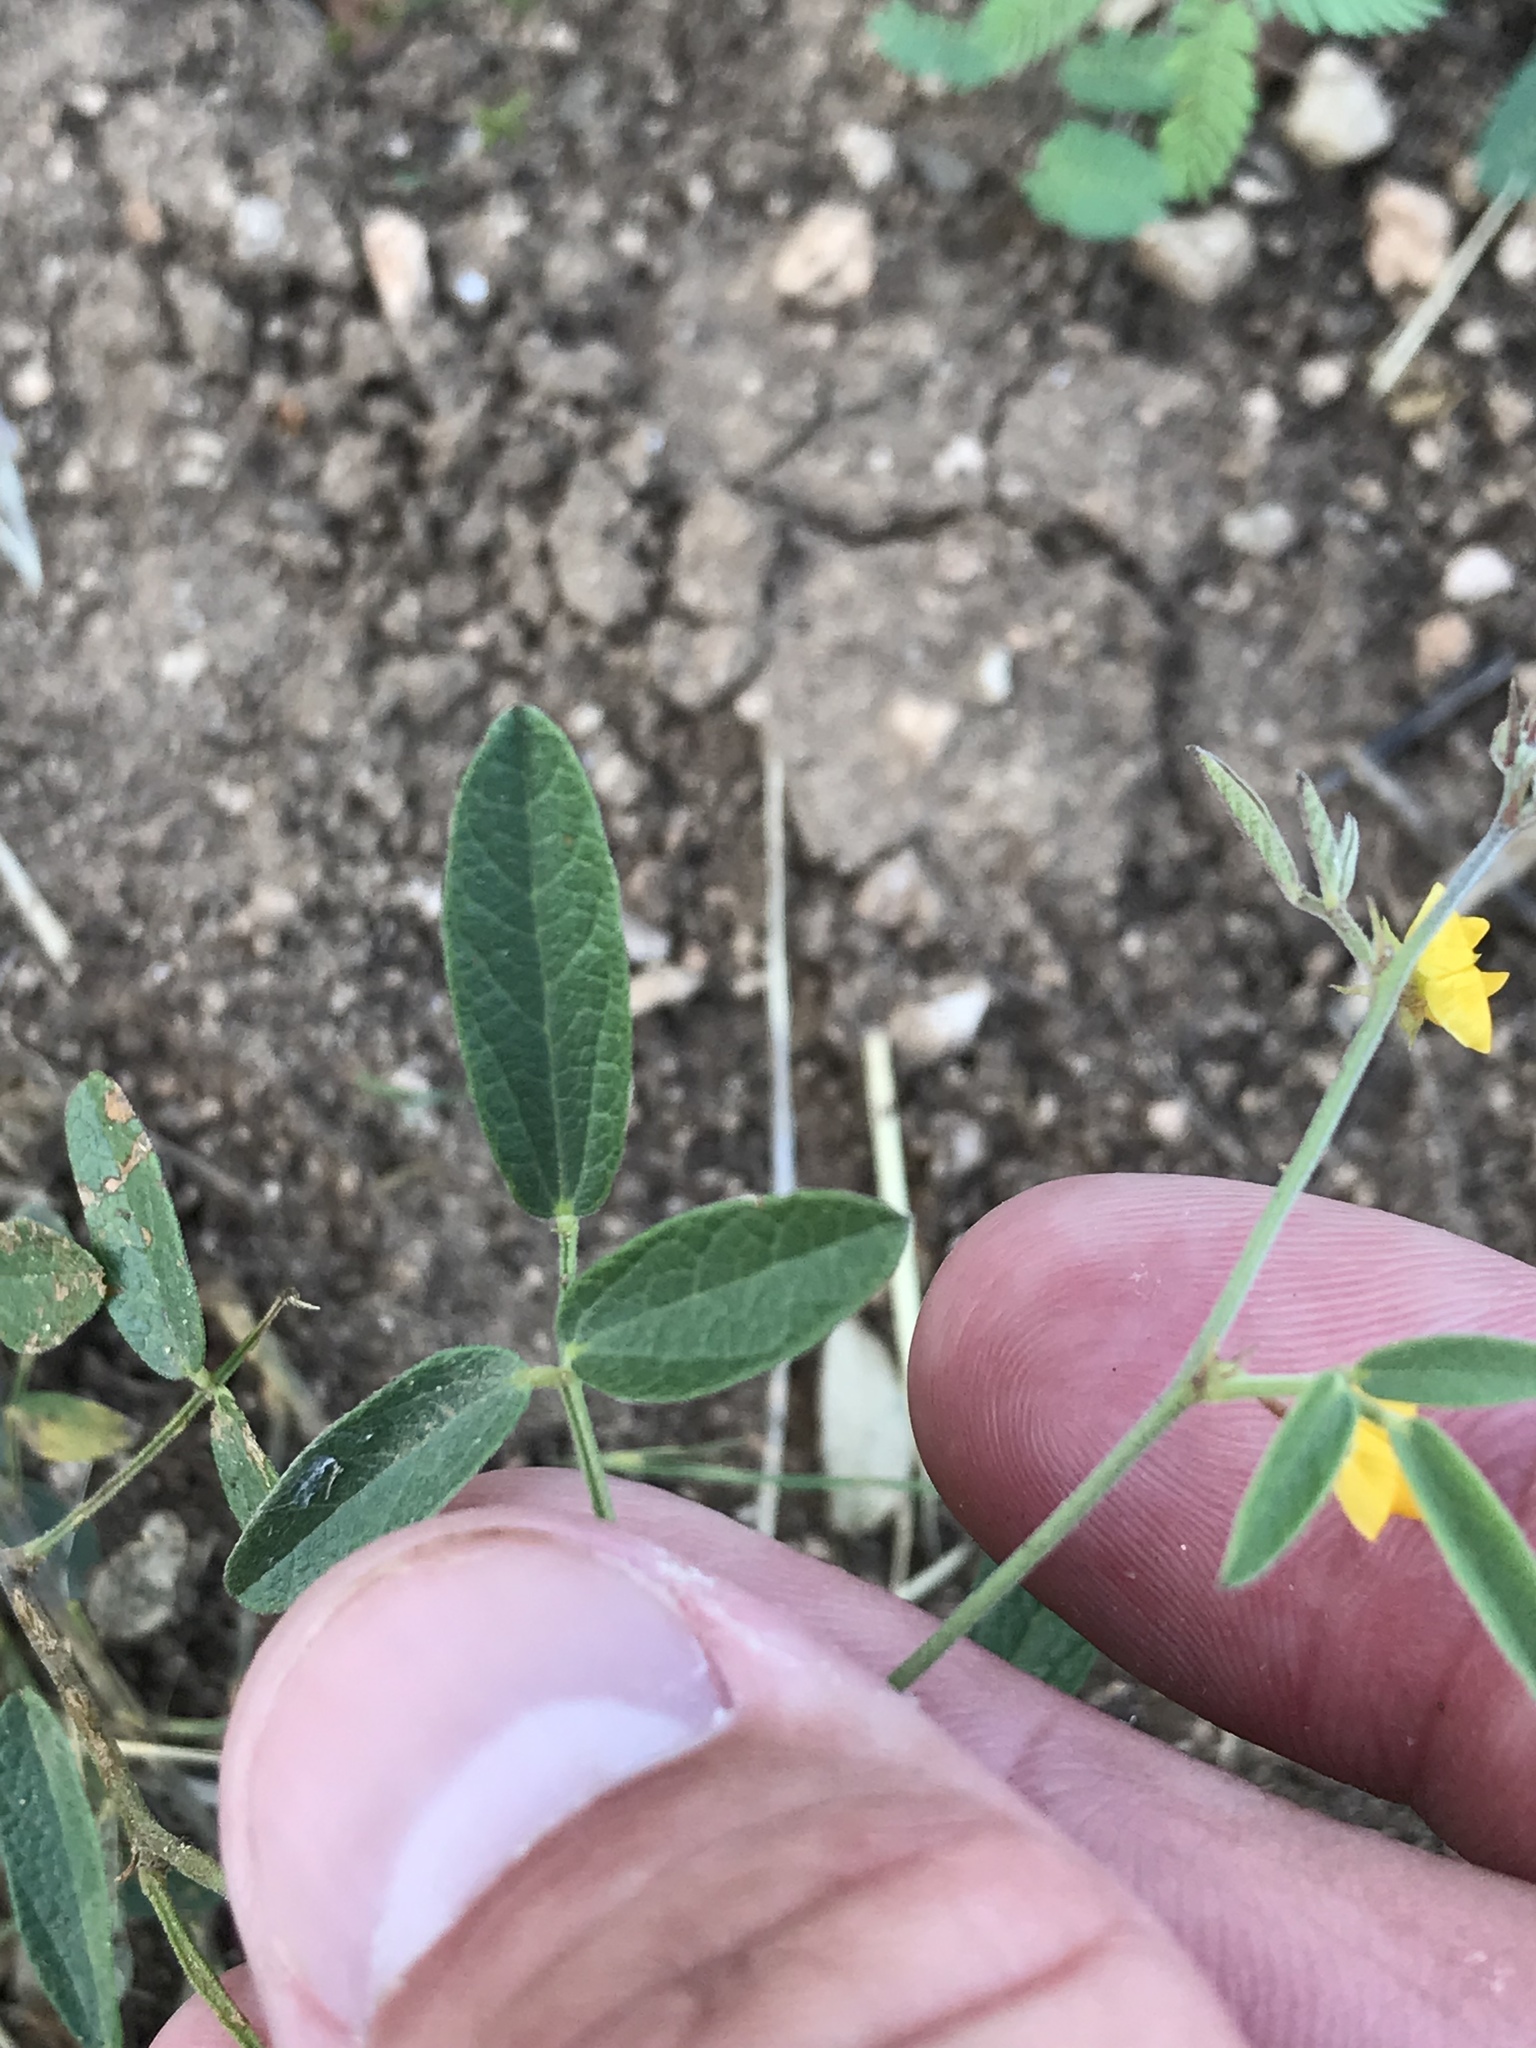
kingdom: Plantae
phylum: Tracheophyta
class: Magnoliopsida
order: Fabales
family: Fabaceae
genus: Stylosanthes
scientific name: Stylosanthes biflora
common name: Two-flower pencil-flower
